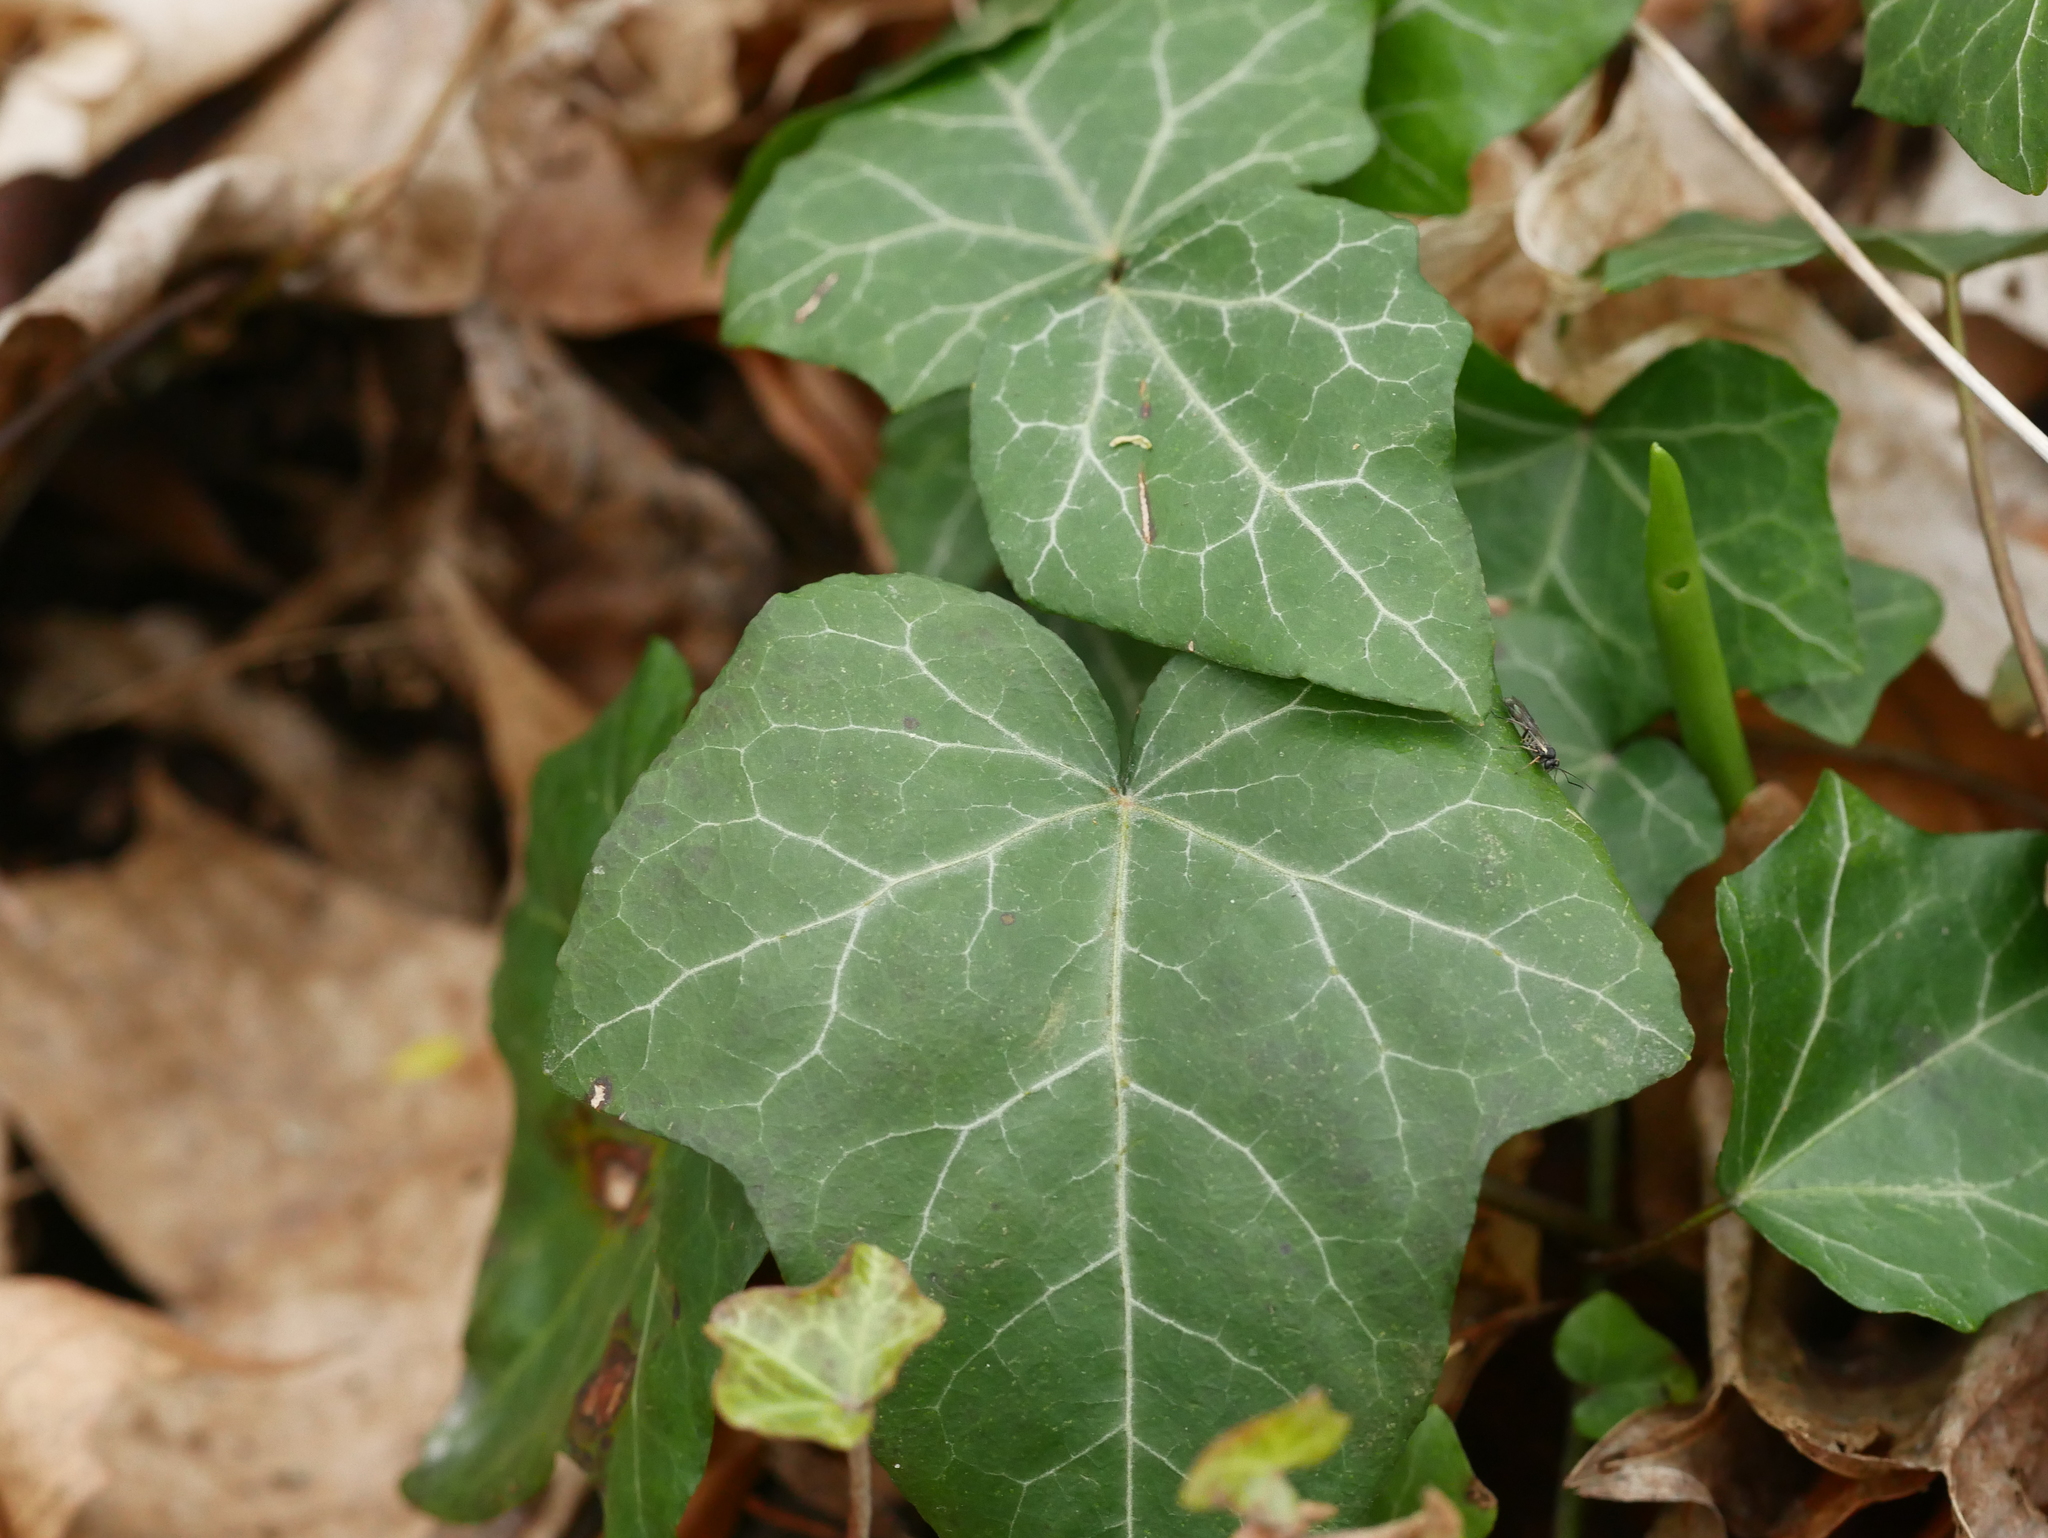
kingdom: Plantae
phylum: Tracheophyta
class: Magnoliopsida
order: Apiales
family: Araliaceae
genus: Hedera
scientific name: Hedera helix
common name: Ivy
